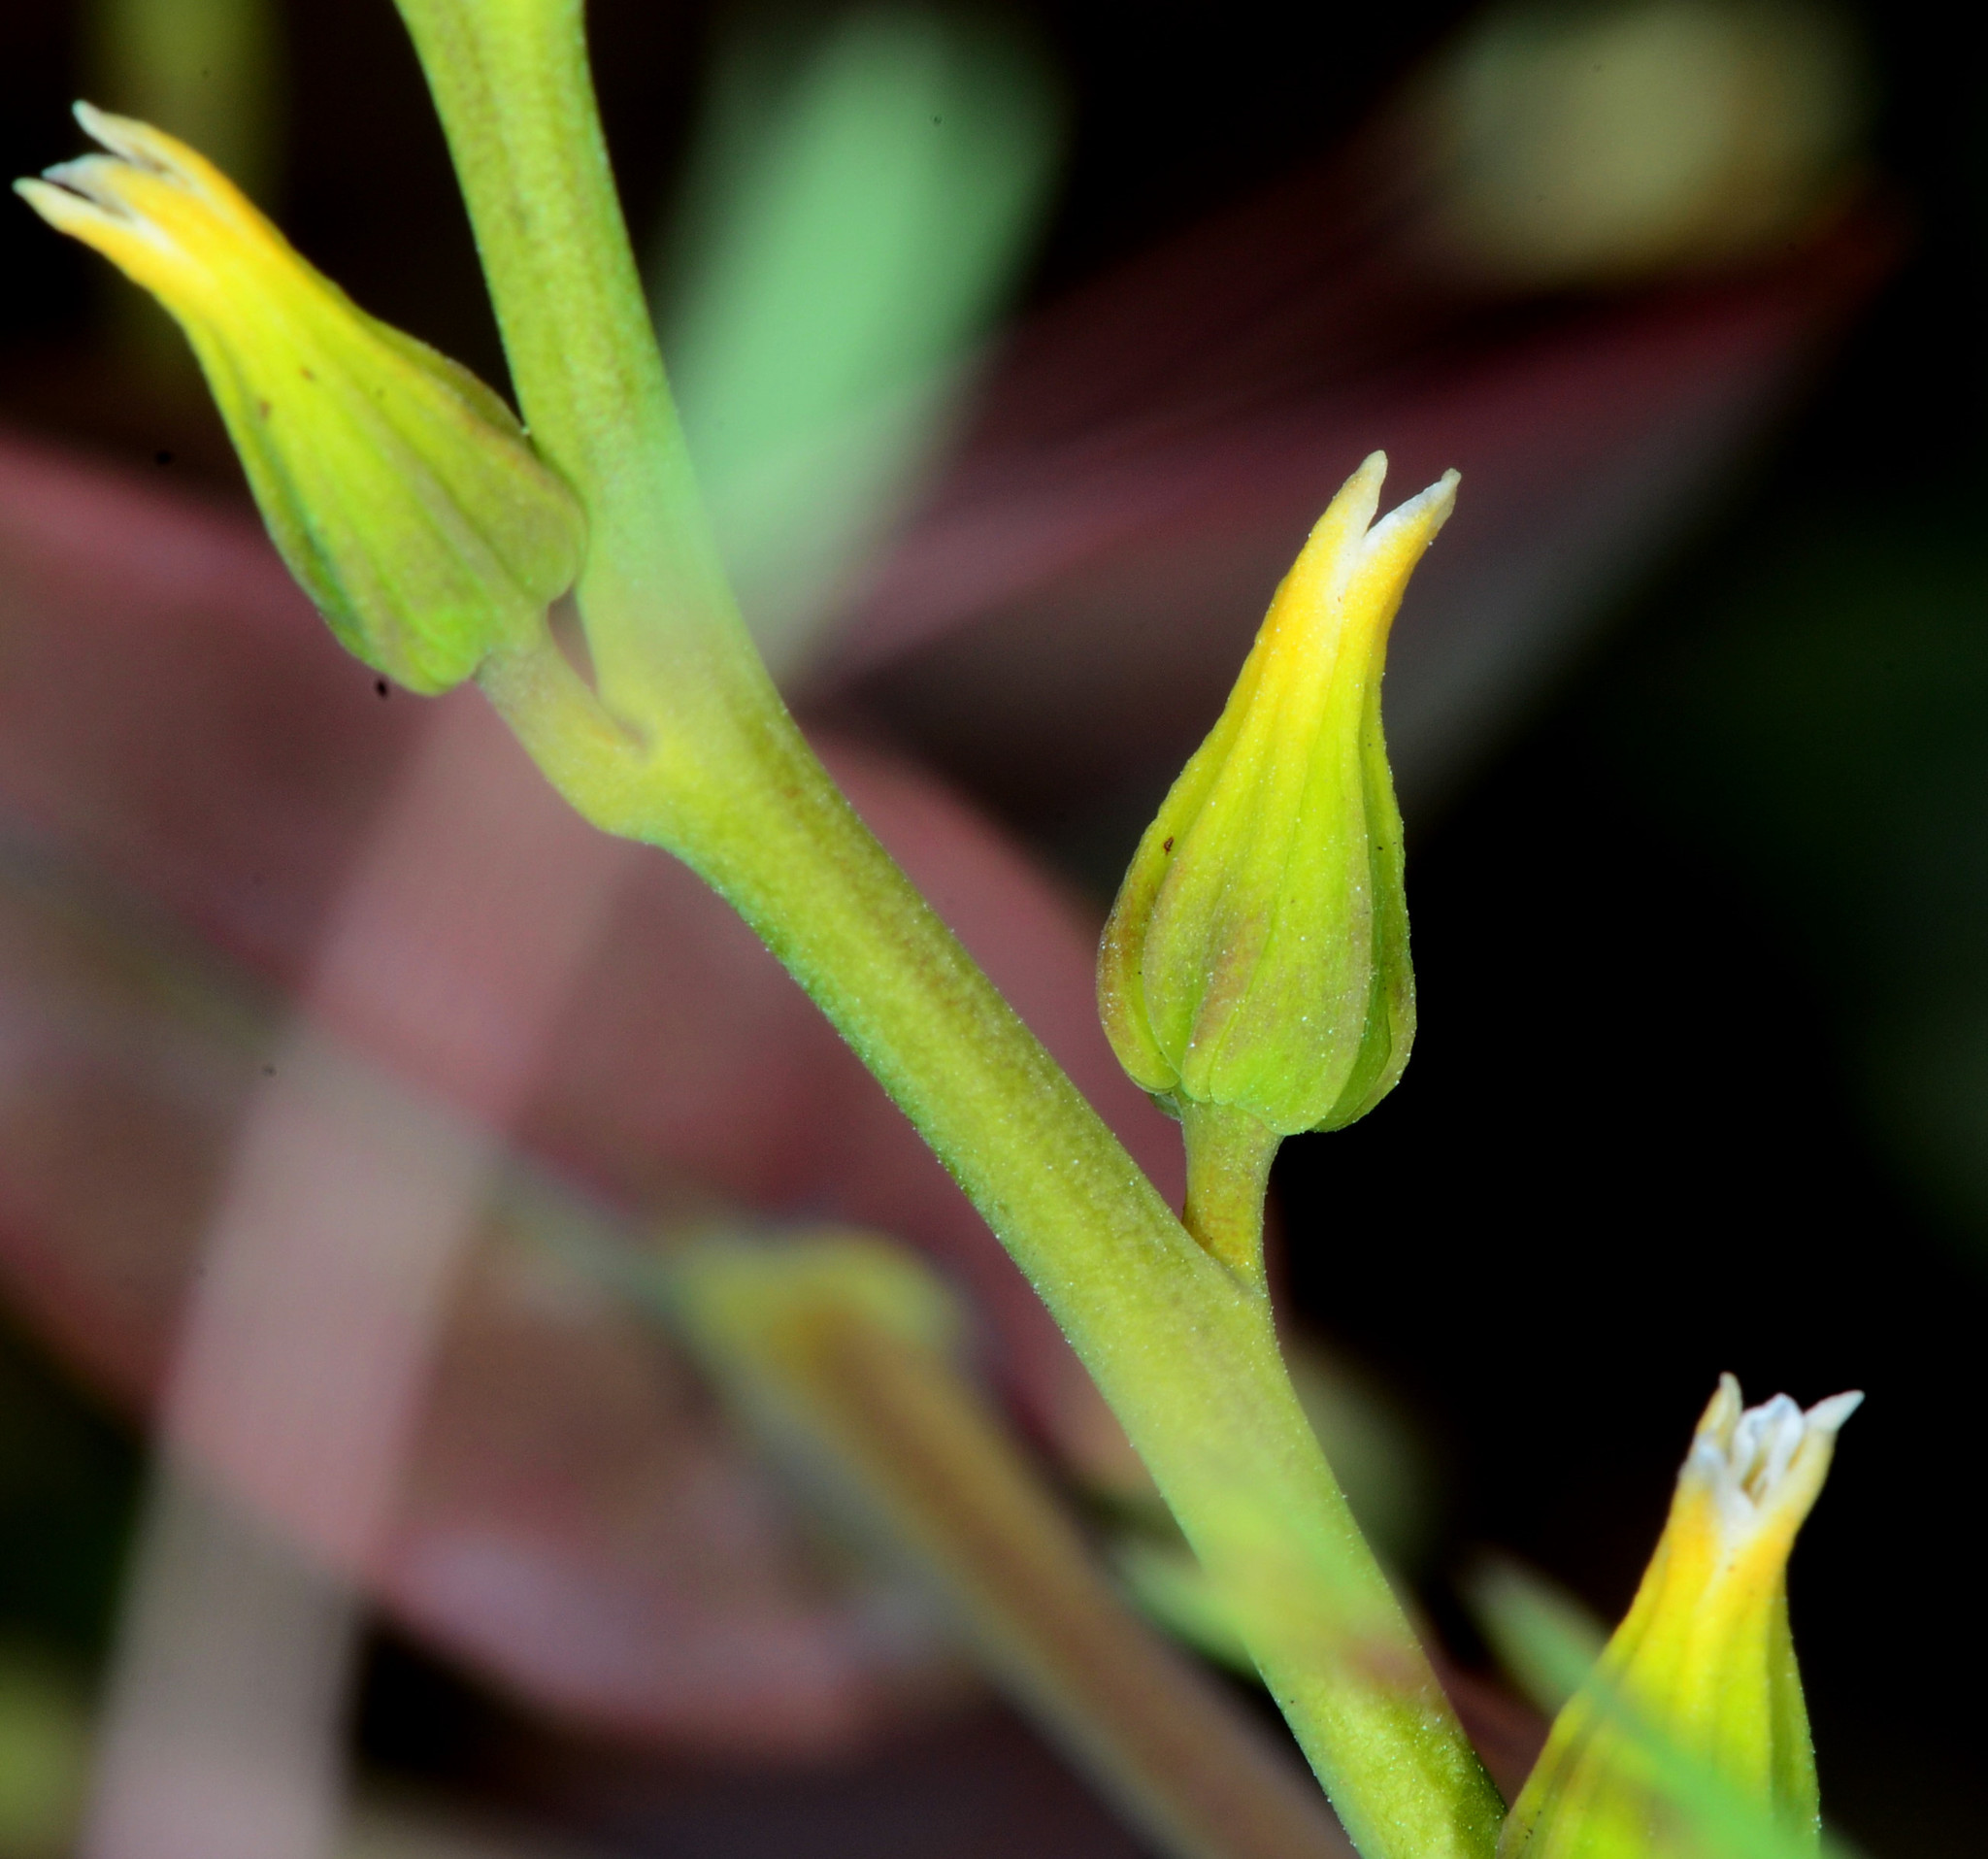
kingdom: Plantae
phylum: Tracheophyta
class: Magnoliopsida
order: Brassicales
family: Brassicaceae
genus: Streptanthus
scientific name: Streptanthus hesperidis
